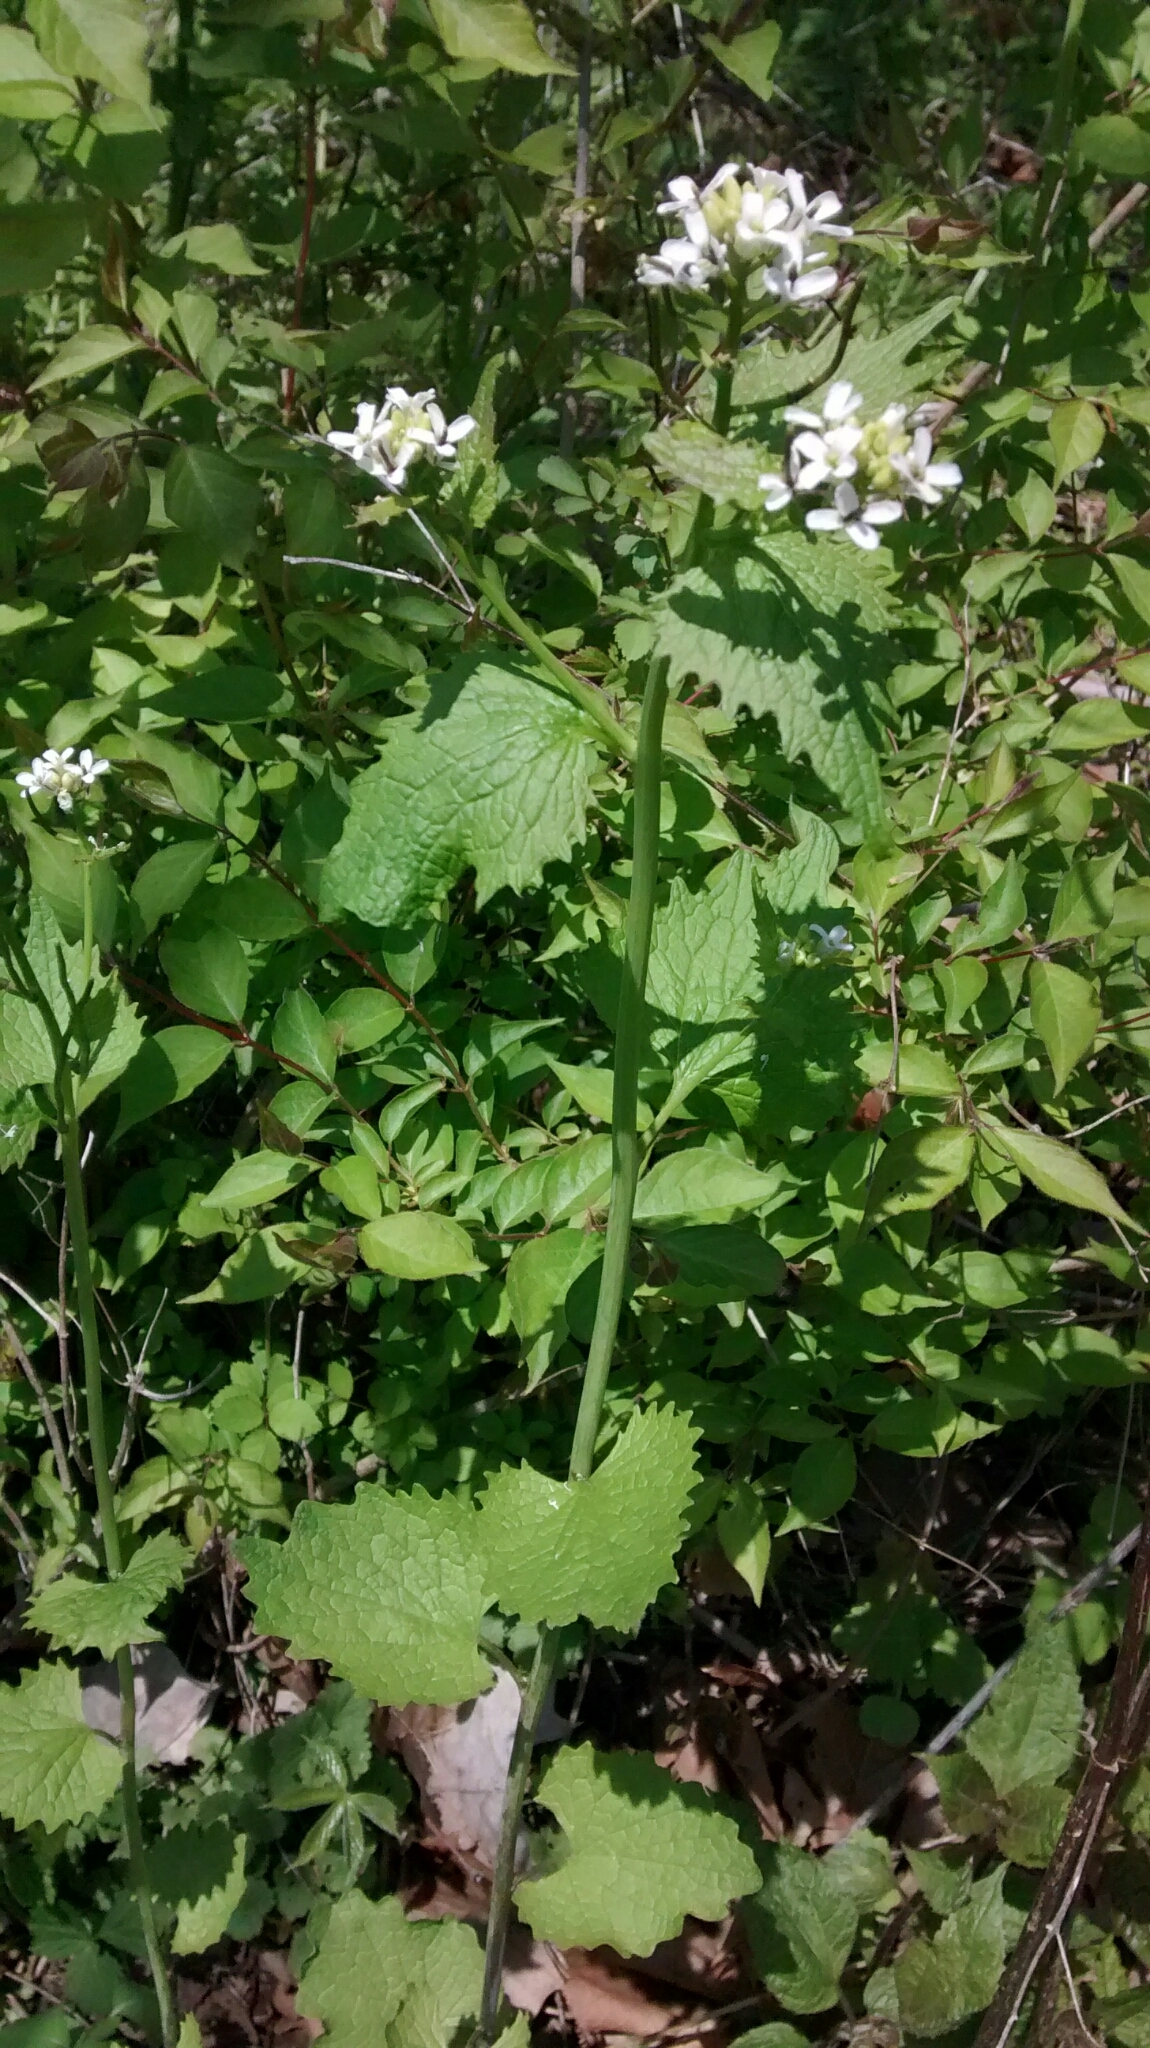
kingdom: Plantae
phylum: Tracheophyta
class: Magnoliopsida
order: Brassicales
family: Brassicaceae
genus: Alliaria
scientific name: Alliaria petiolata
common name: Garlic mustard
